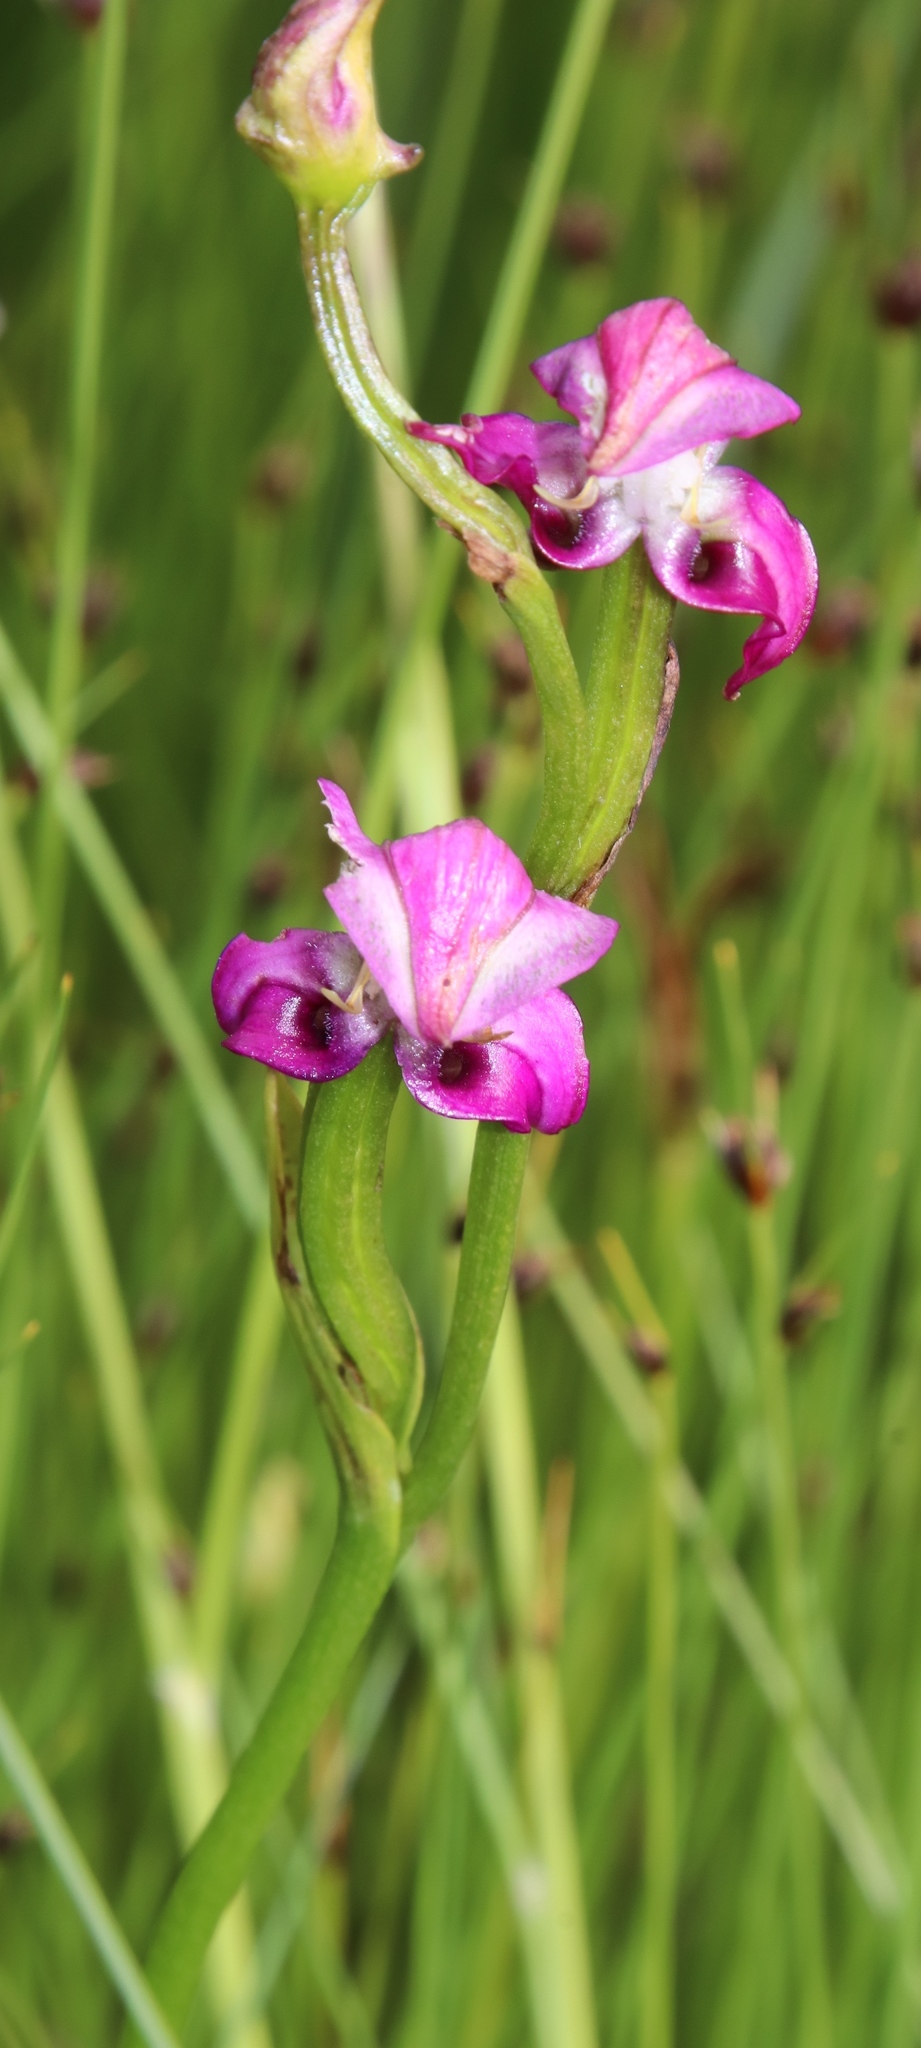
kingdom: Plantae
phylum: Tracheophyta
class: Liliopsida
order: Asparagales
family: Orchidaceae
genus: Disperis
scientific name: Disperis paludosa
